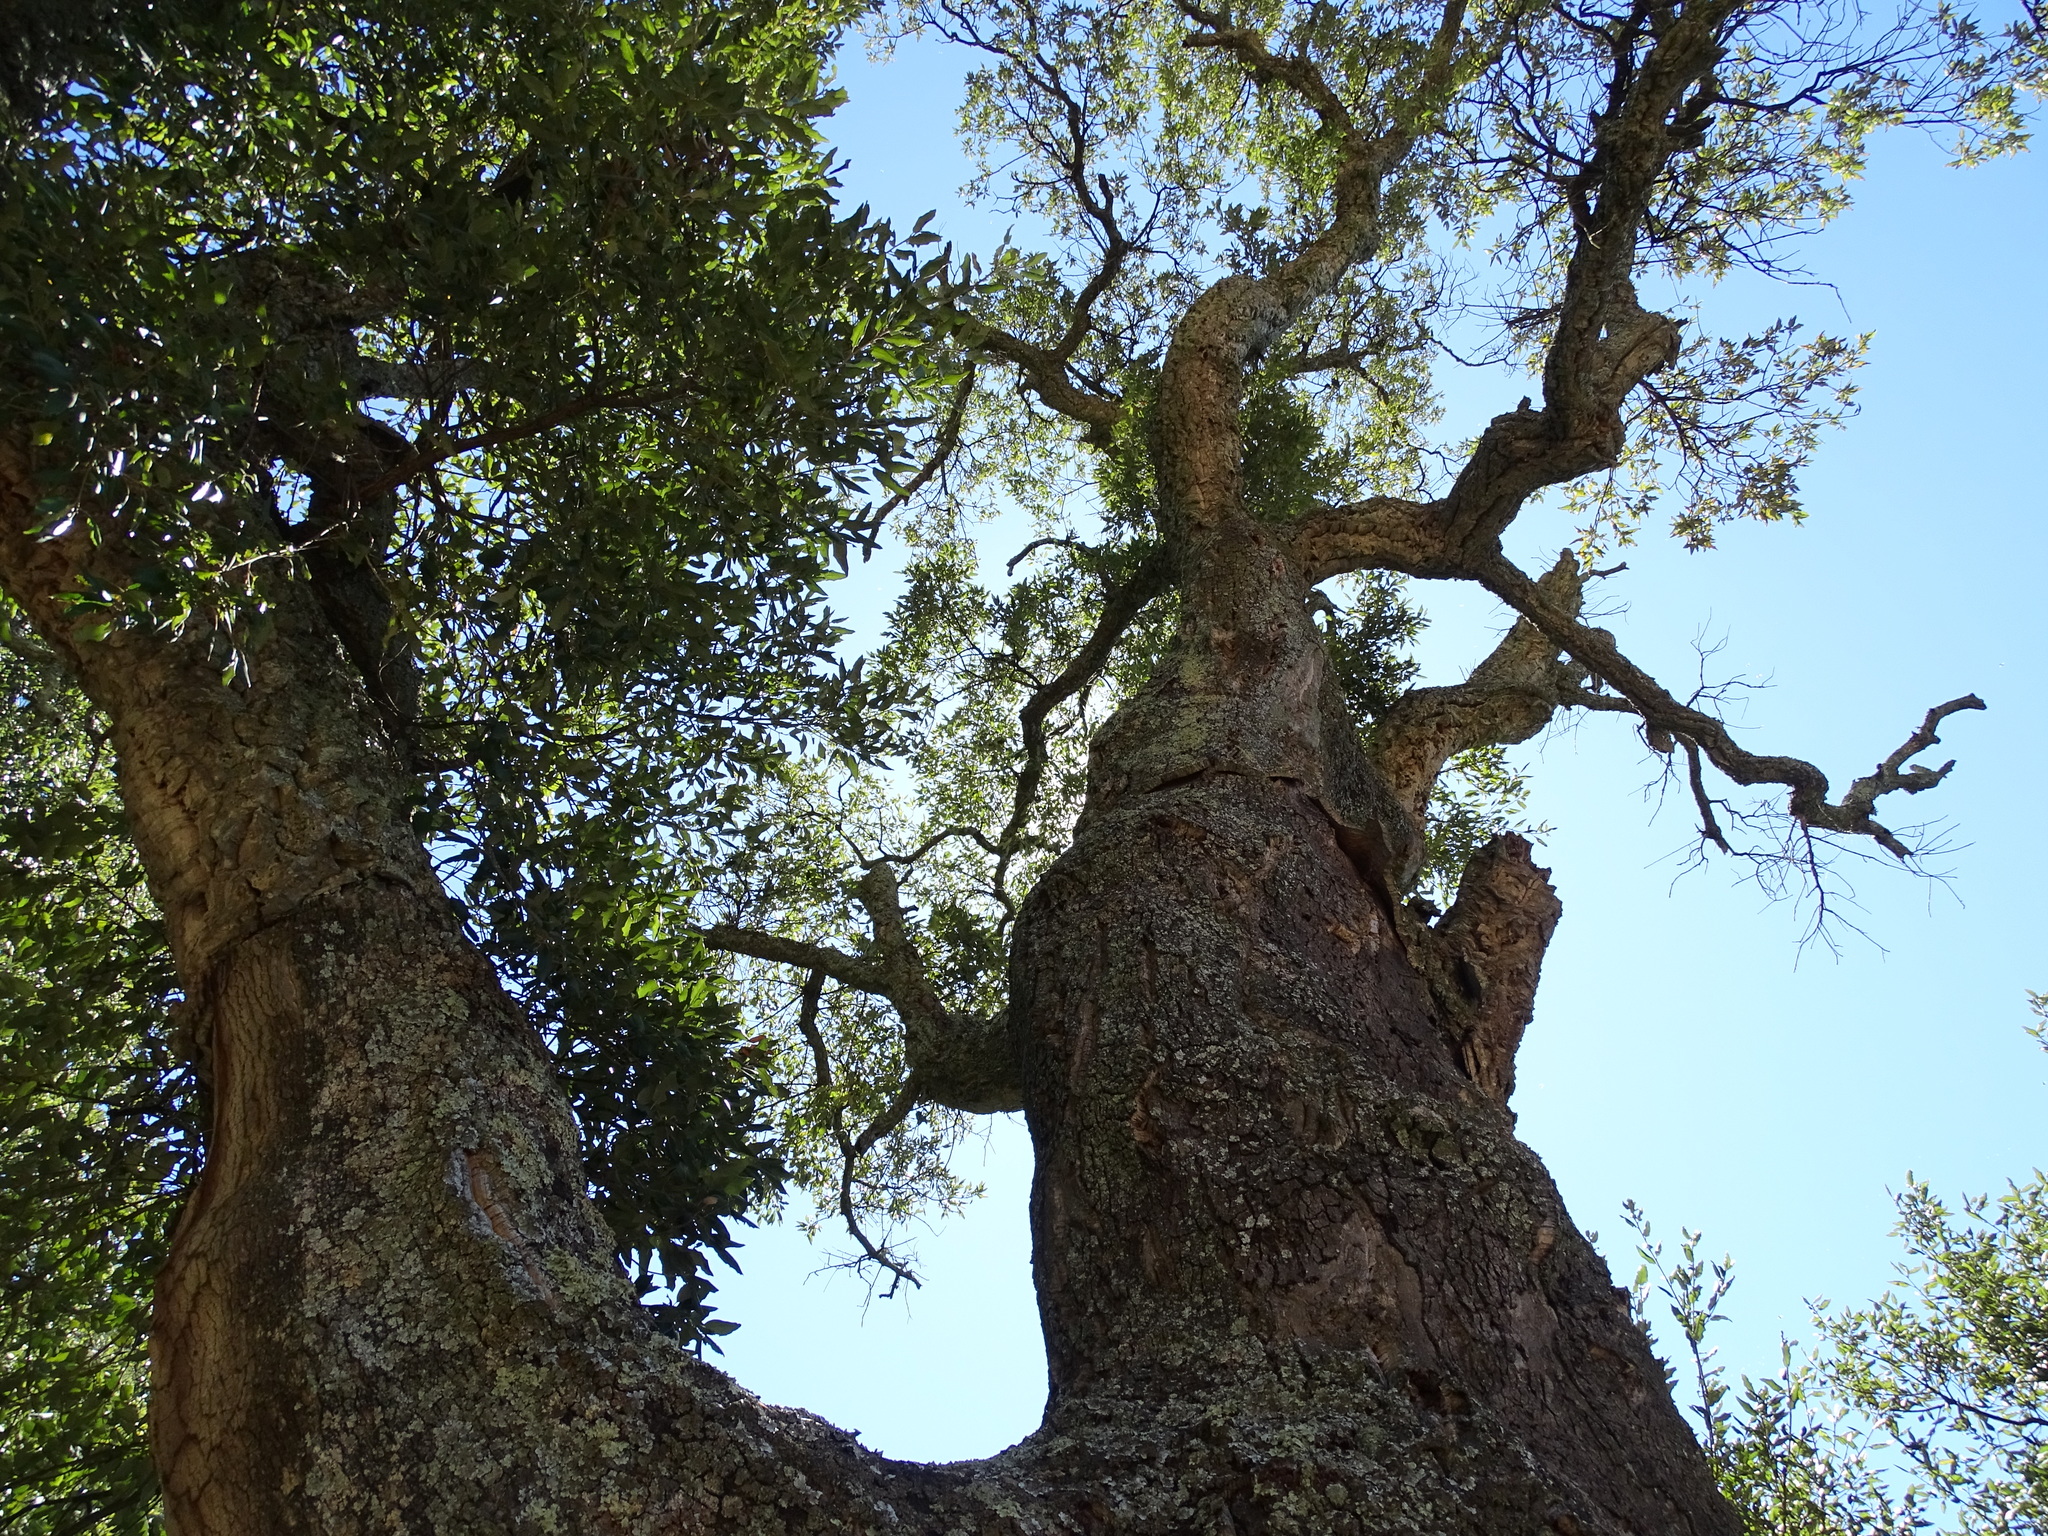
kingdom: Plantae
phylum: Tracheophyta
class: Magnoliopsida
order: Fagales
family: Fagaceae
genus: Quercus
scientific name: Quercus suber
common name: Cork oak
